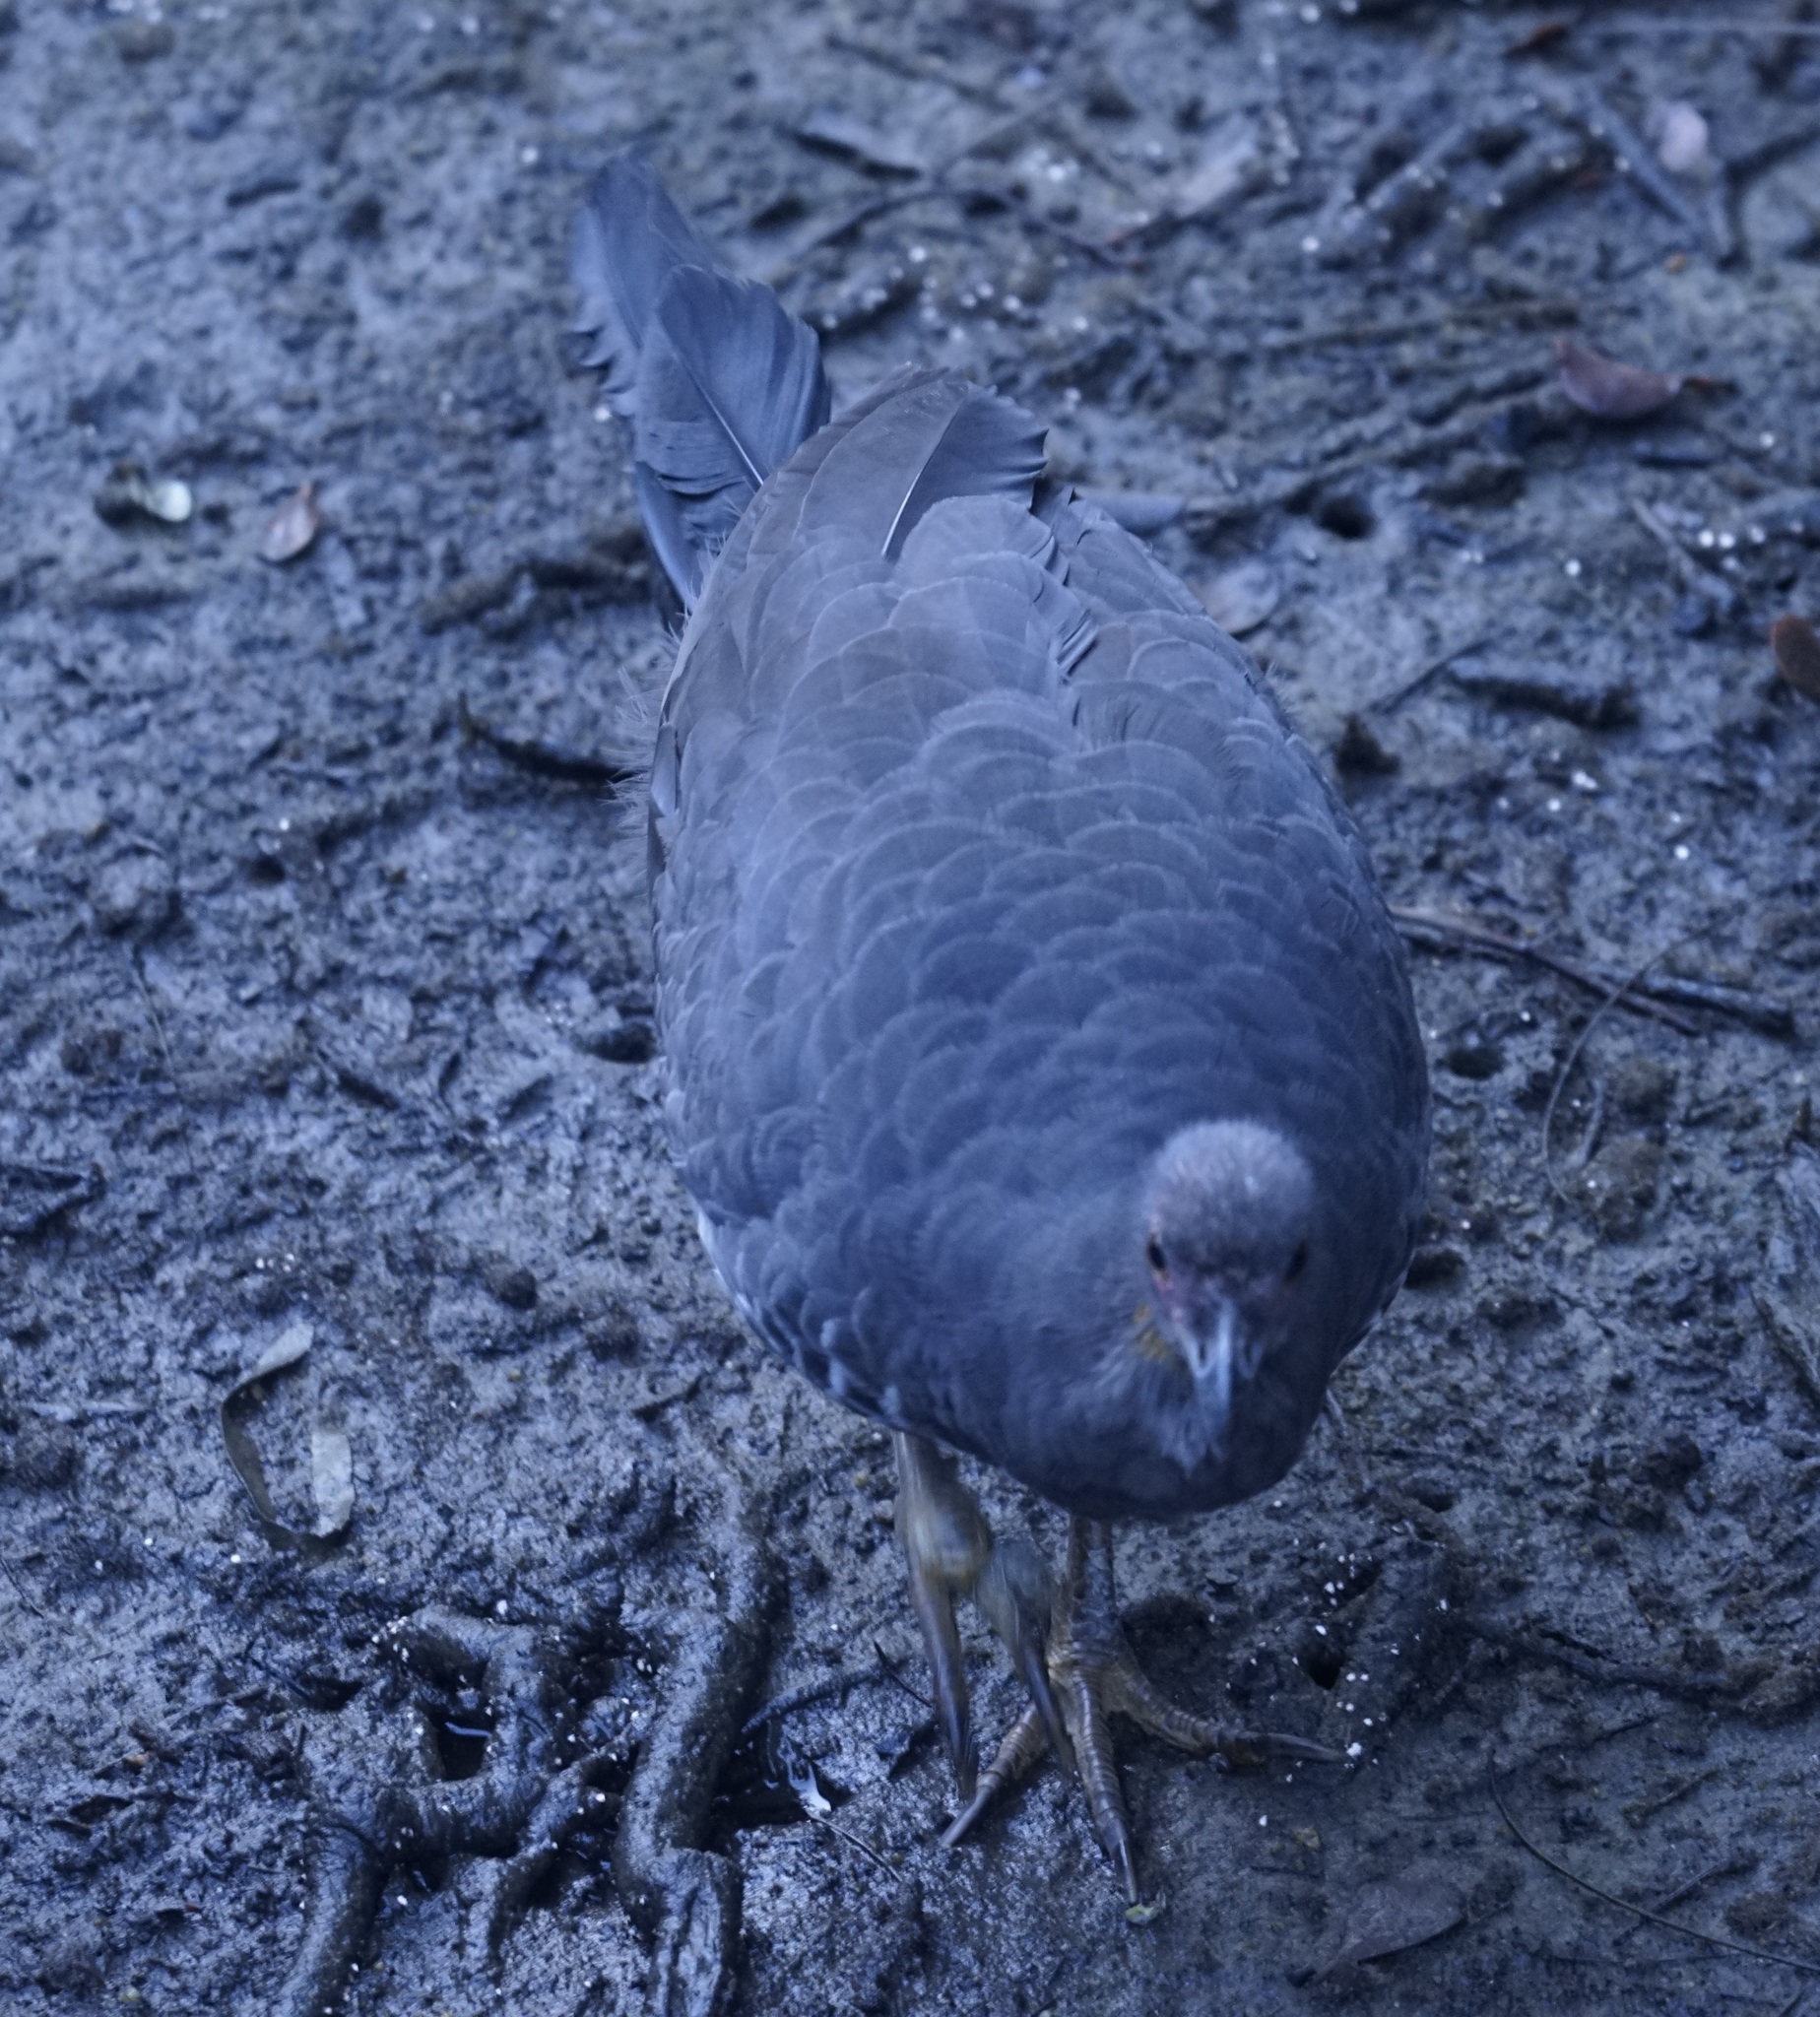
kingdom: Animalia
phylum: Chordata
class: Aves
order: Galliformes
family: Megapodiidae
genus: Alectura
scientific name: Alectura lathami
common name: Australian brushturkey
